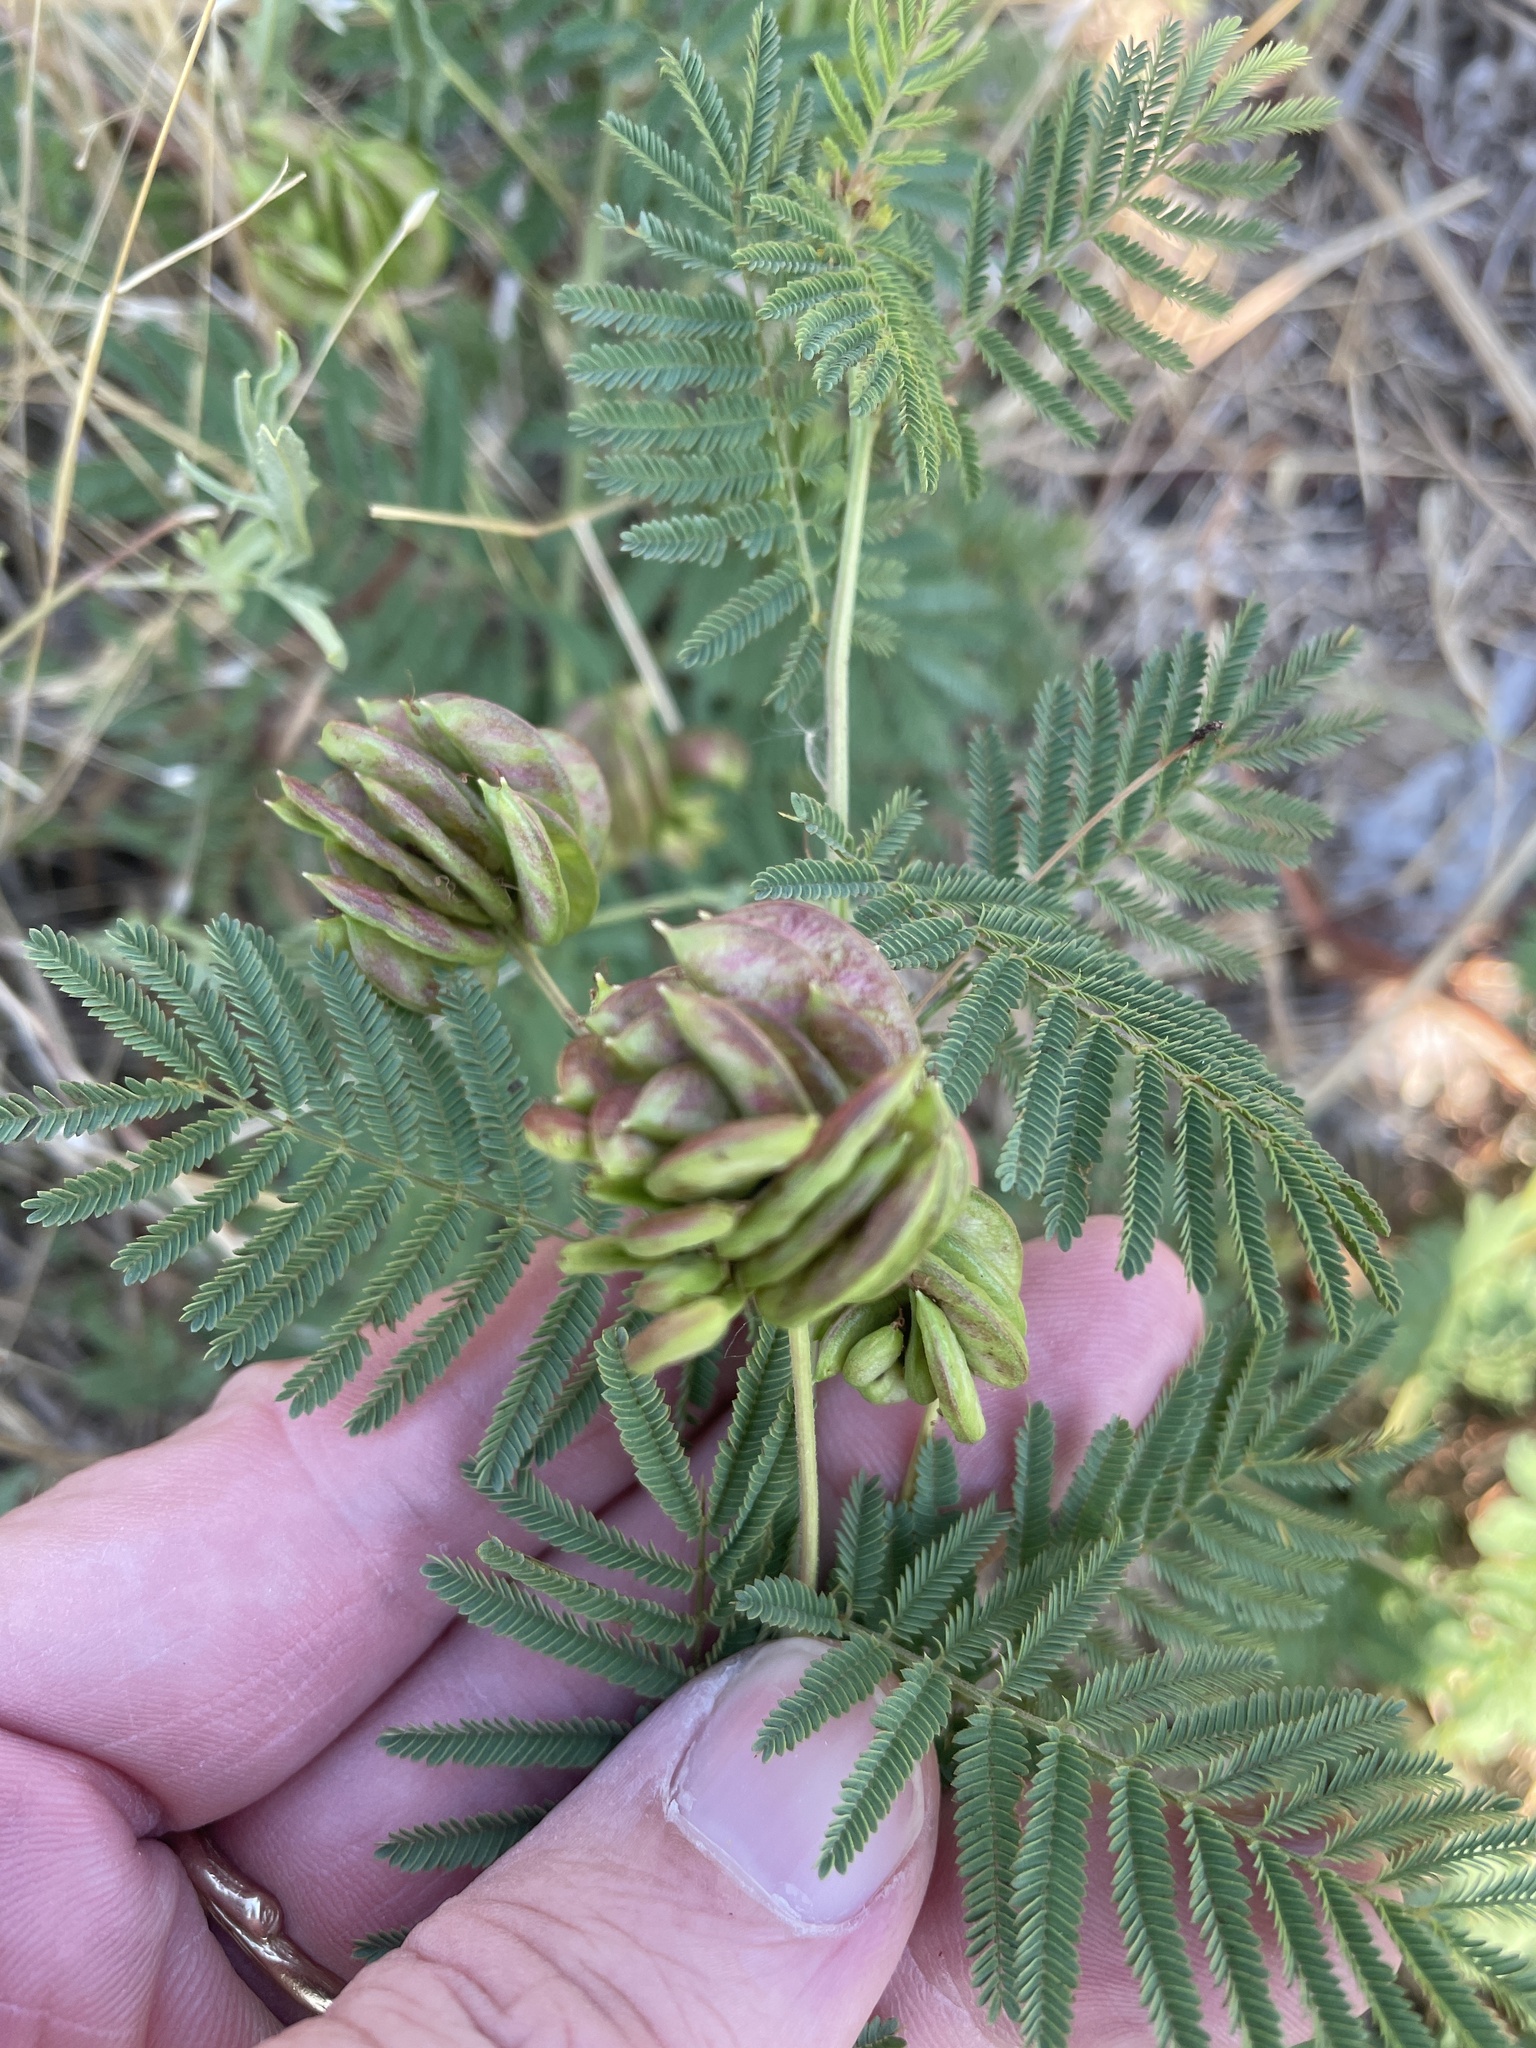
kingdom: Plantae
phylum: Tracheophyta
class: Magnoliopsida
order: Fabales
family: Fabaceae
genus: Desmanthus
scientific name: Desmanthus illinoensis
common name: Illinois bundle-flower
